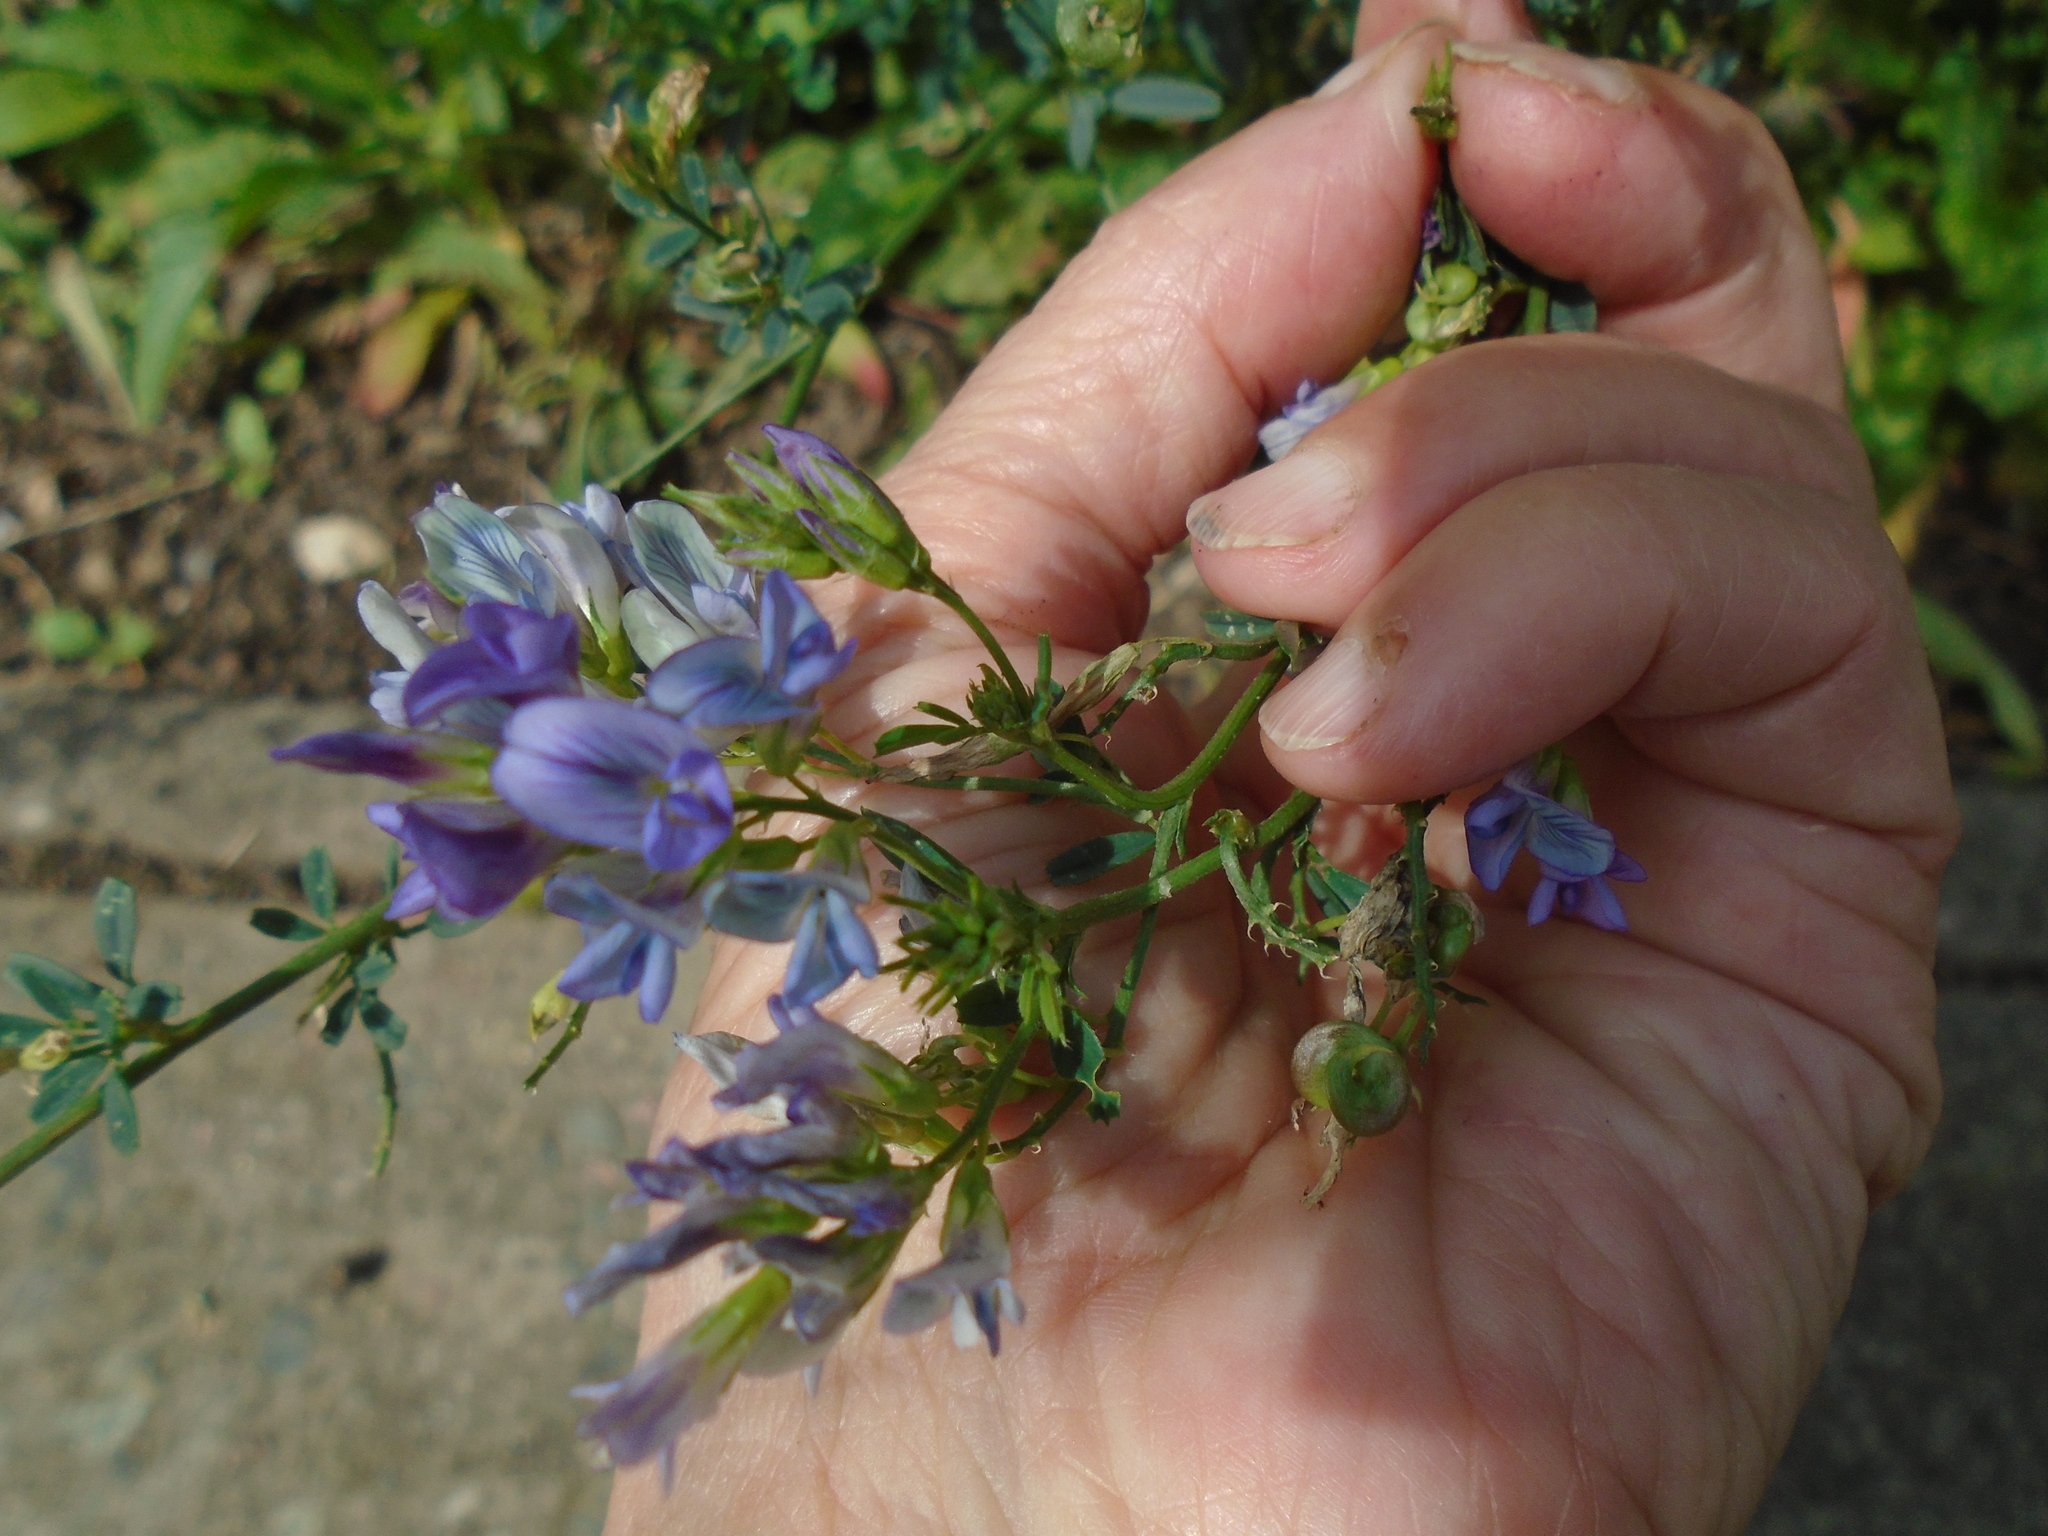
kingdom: Plantae
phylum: Tracheophyta
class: Magnoliopsida
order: Fabales
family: Fabaceae
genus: Medicago
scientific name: Medicago sativa
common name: Alfalfa
